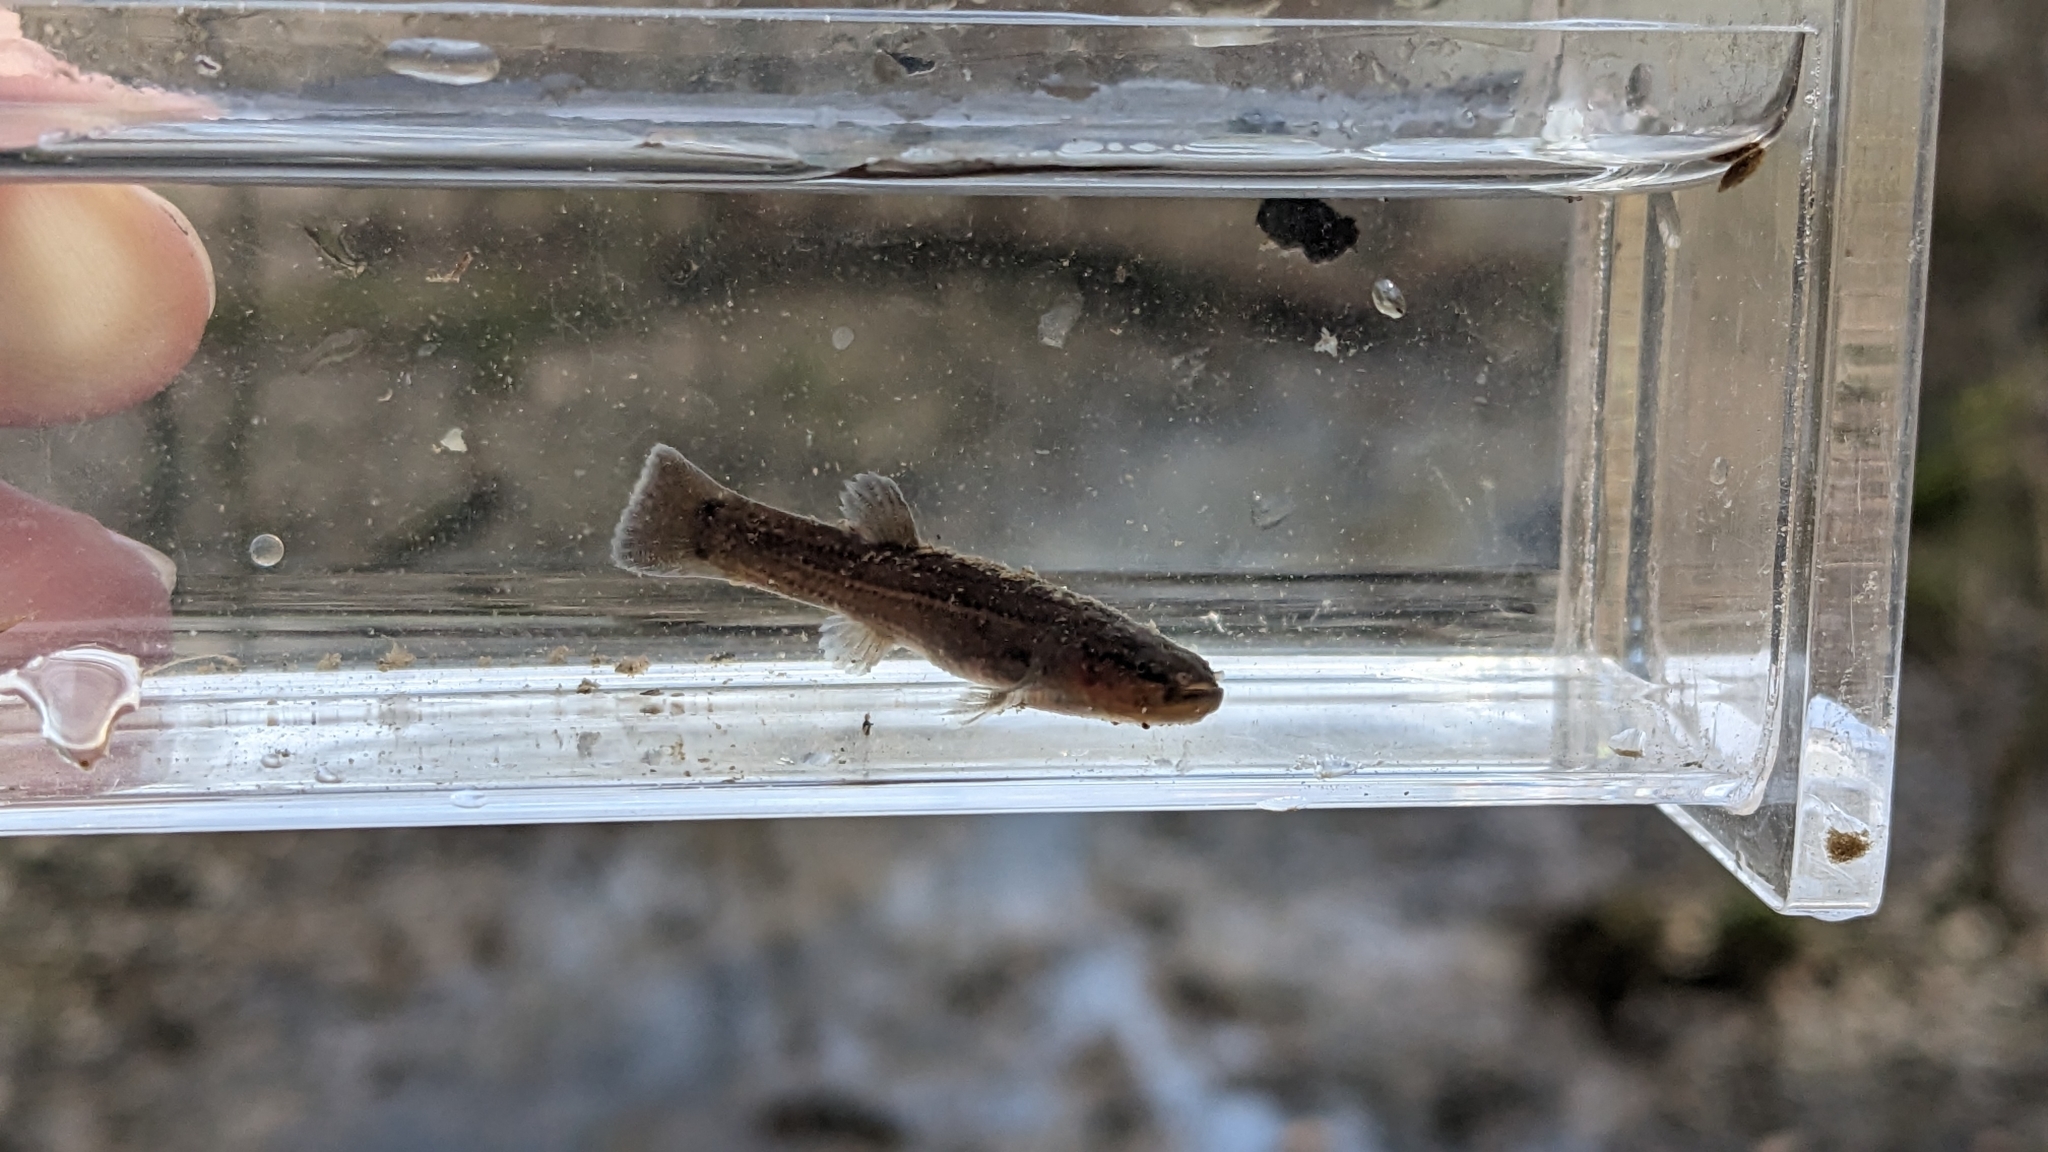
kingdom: Animalia
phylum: Chordata
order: Percopsiformes
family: Amblyopsidae
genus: Forbesichthys
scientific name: Forbesichthys
